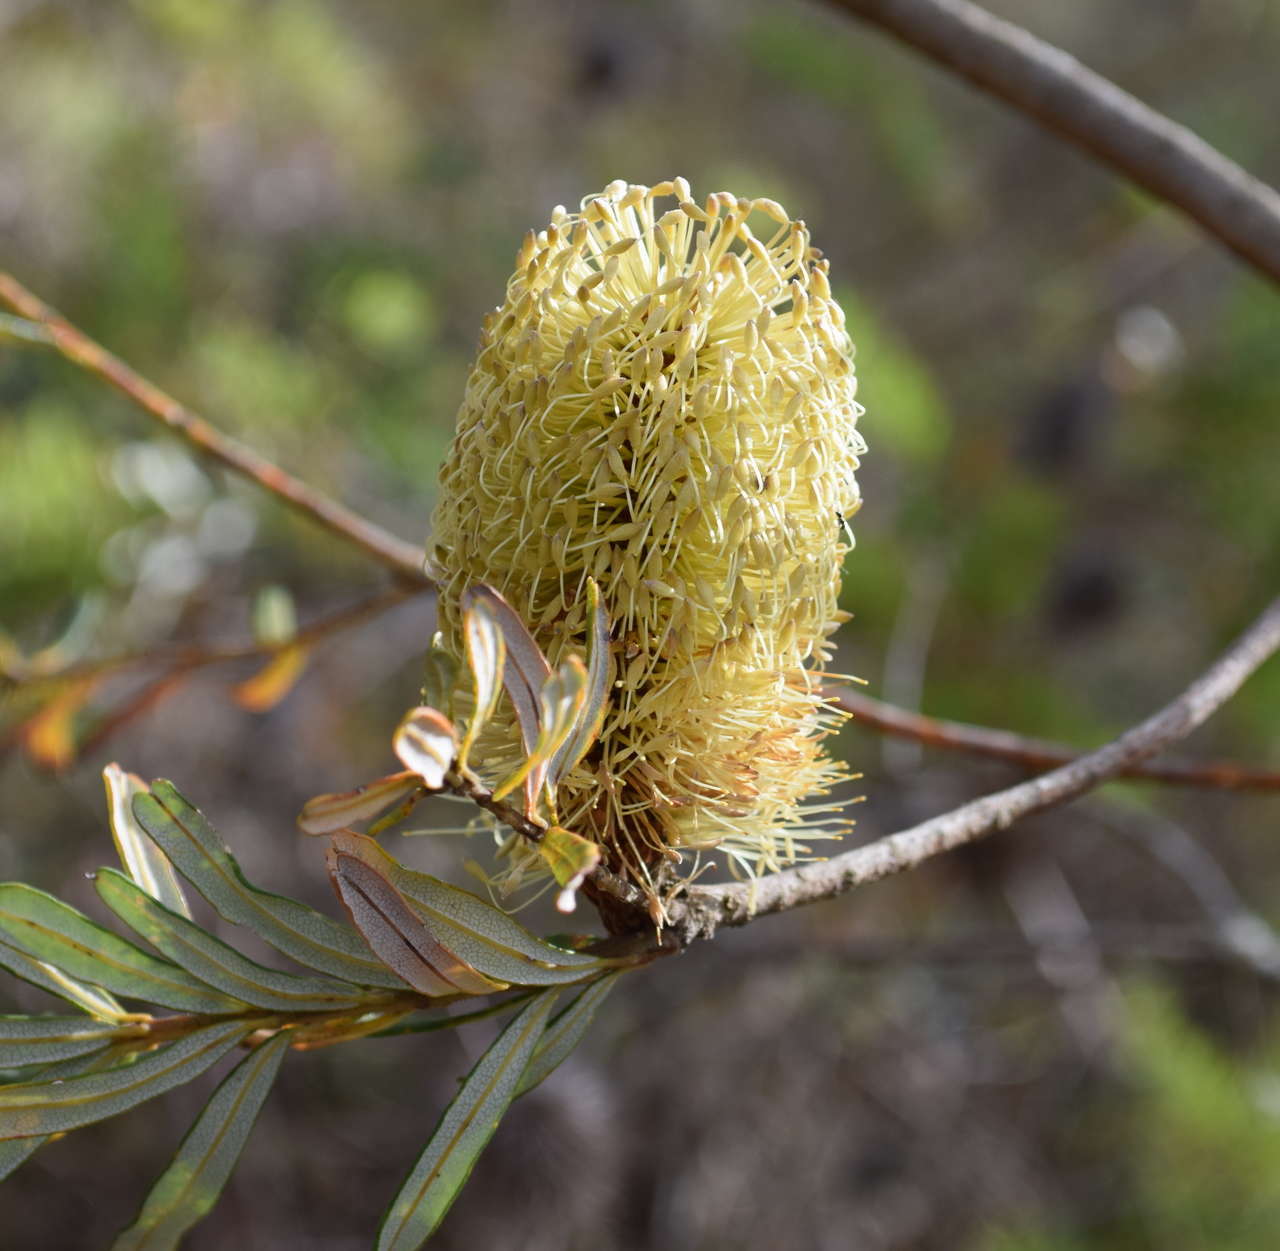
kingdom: Plantae
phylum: Tracheophyta
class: Magnoliopsida
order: Proteales
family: Proteaceae
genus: Banksia
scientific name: Banksia marginata
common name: Silver banksia
